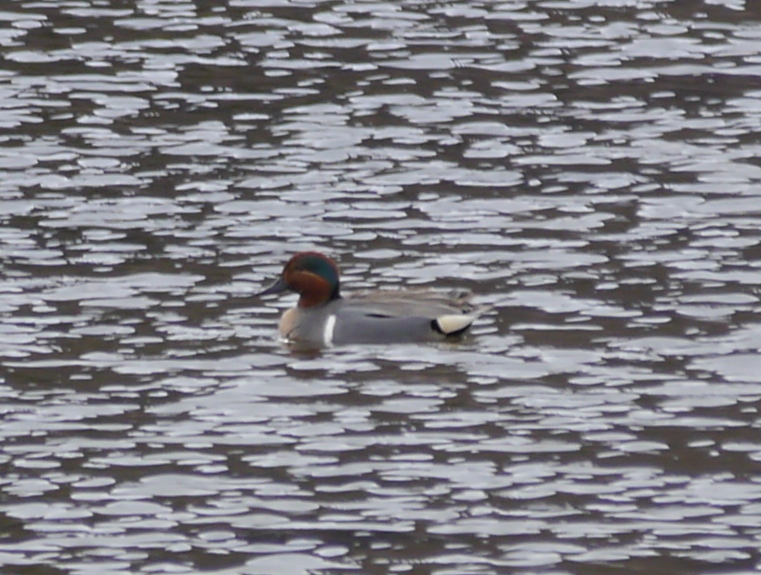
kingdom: Animalia
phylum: Chordata
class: Aves
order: Anseriformes
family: Anatidae
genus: Anas
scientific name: Anas crecca
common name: Eurasian teal
